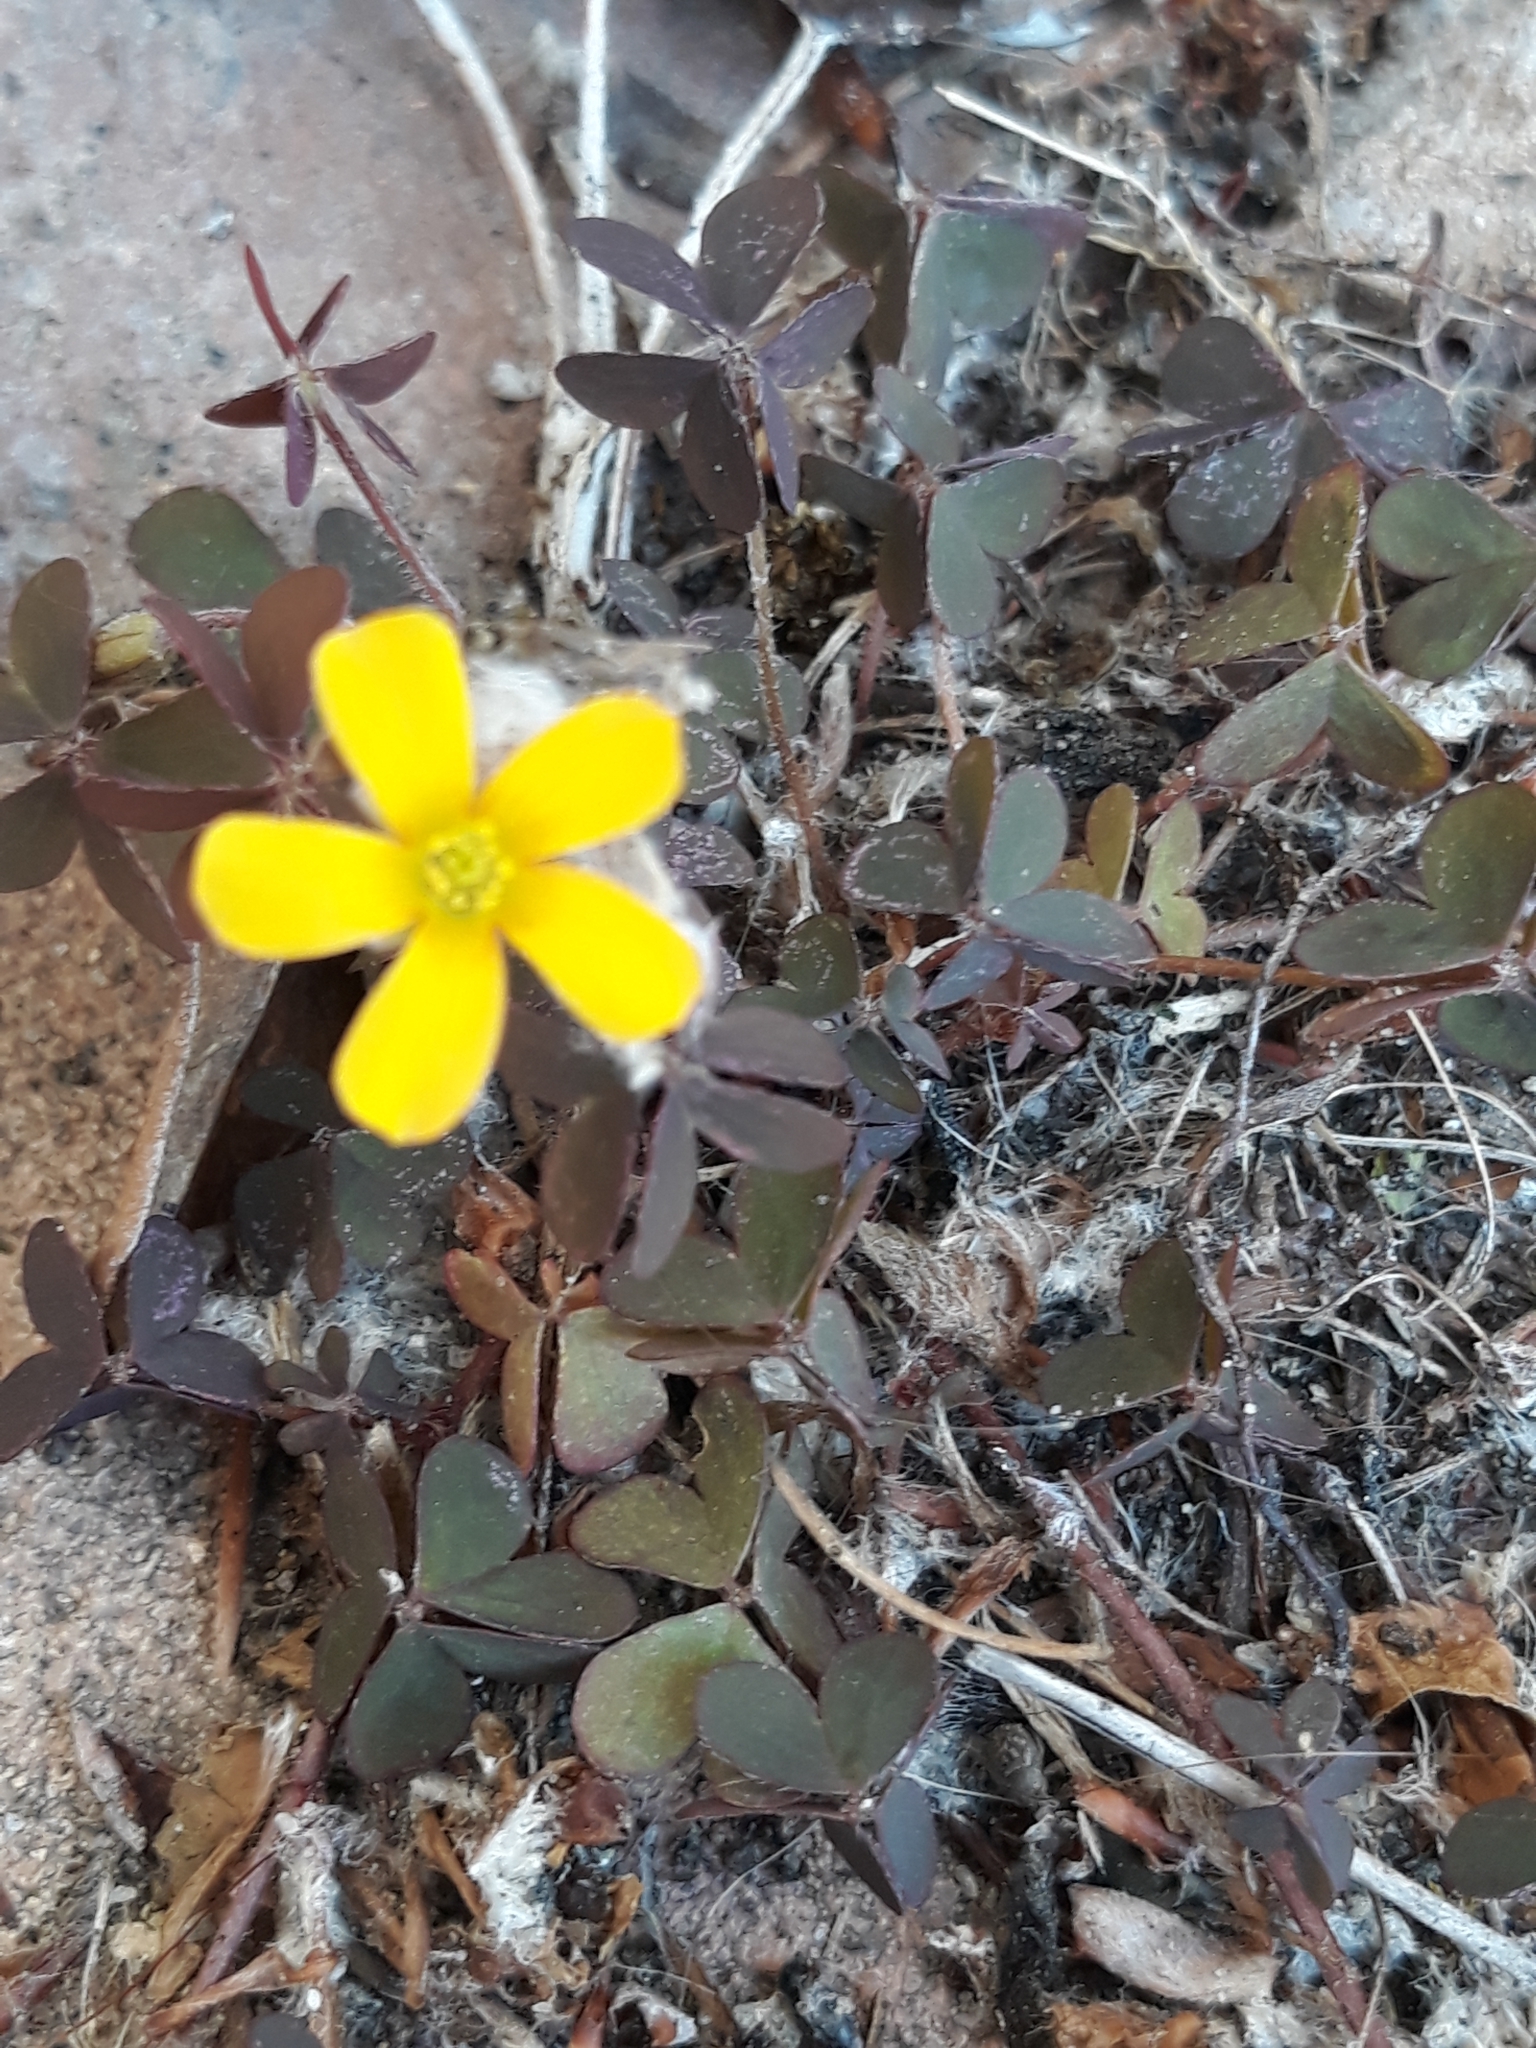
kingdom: Plantae
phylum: Tracheophyta
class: Magnoliopsida
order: Oxalidales
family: Oxalidaceae
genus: Oxalis
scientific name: Oxalis corniculata
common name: Procumbent yellow-sorrel
